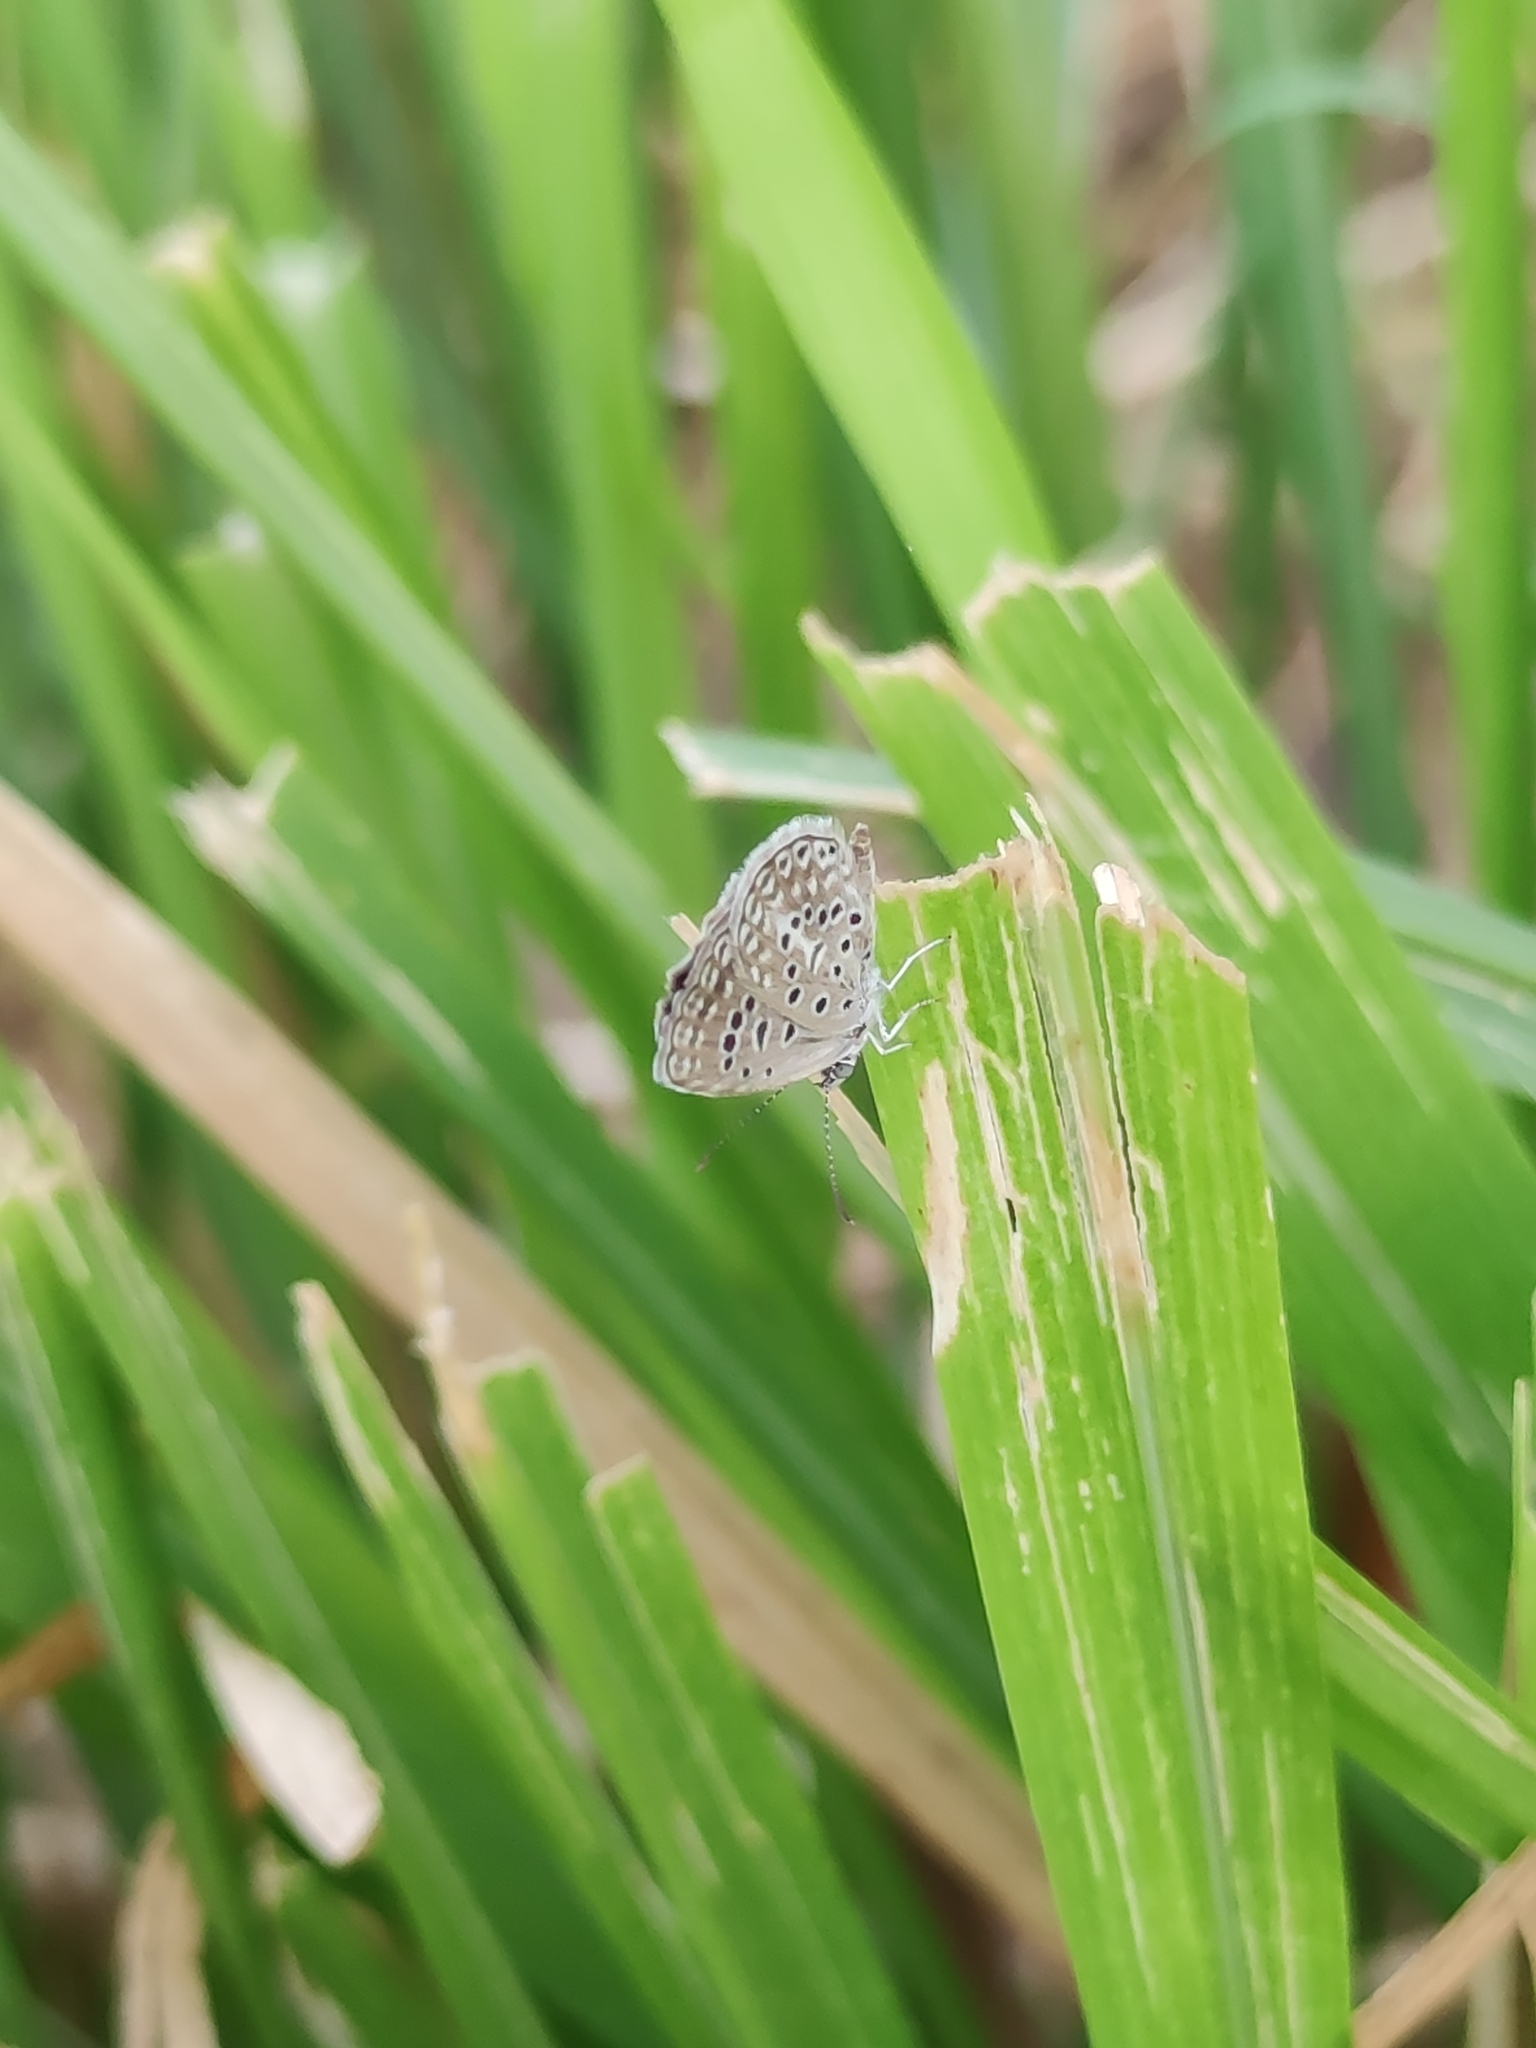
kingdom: Animalia
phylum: Arthropoda
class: Insecta
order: Lepidoptera
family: Lycaenidae
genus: Actizera
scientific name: Actizera lucida
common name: Rayed blue
